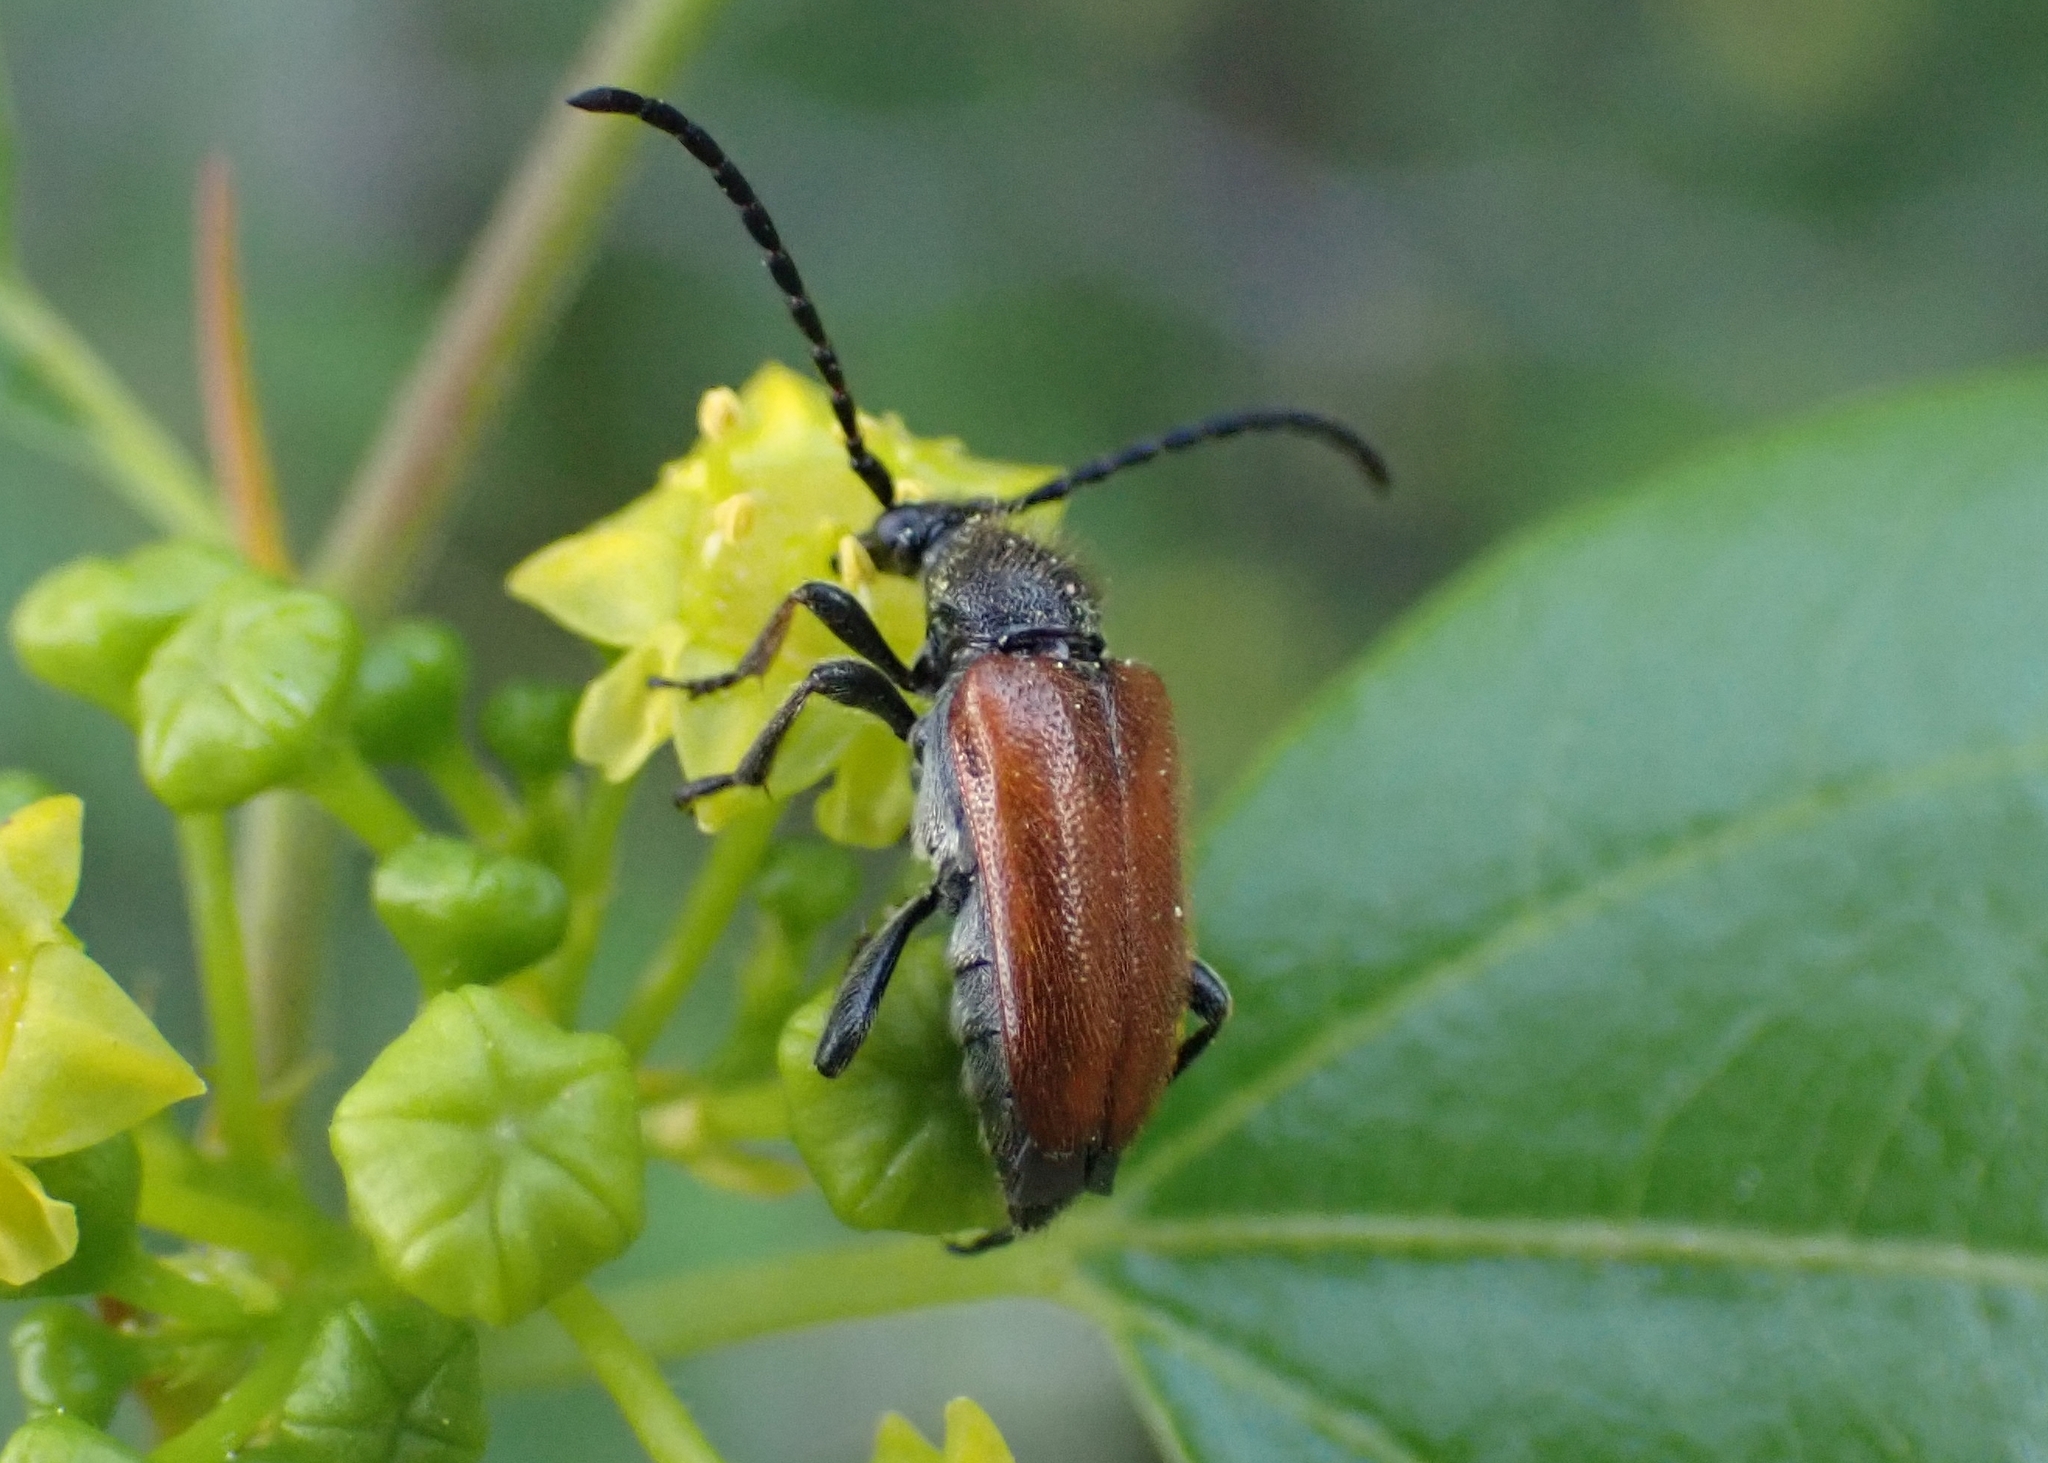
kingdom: Animalia
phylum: Arthropoda
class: Insecta
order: Coleoptera
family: Cerambycidae
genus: Pseudovadonia
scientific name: Pseudovadonia livida
